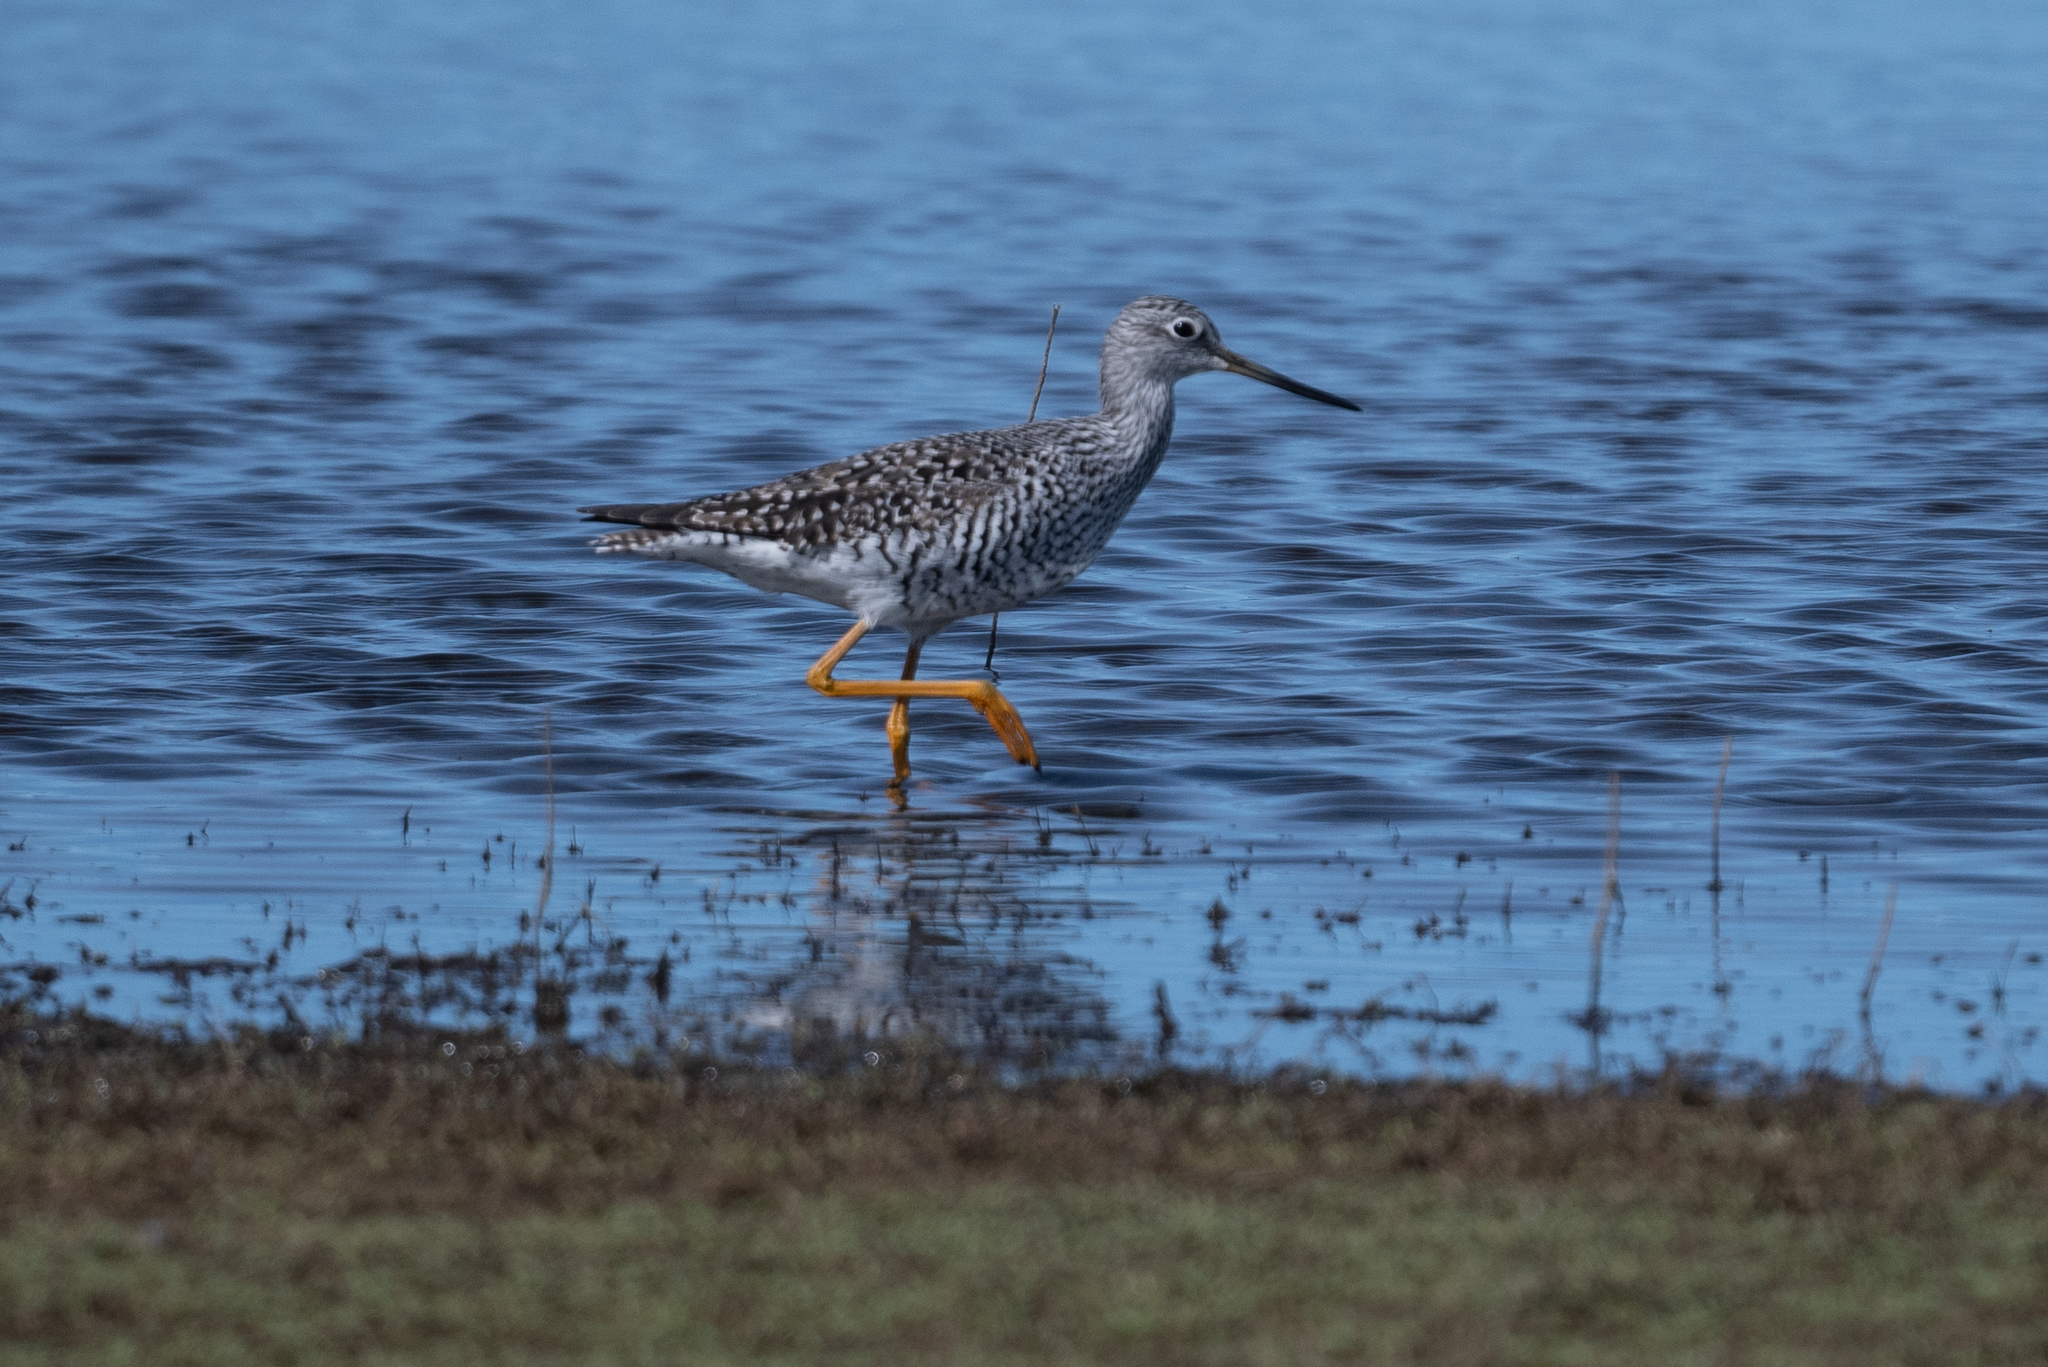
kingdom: Animalia
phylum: Chordata
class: Aves
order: Charadriiformes
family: Scolopacidae
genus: Tringa
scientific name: Tringa melanoleuca
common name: Greater yellowlegs
